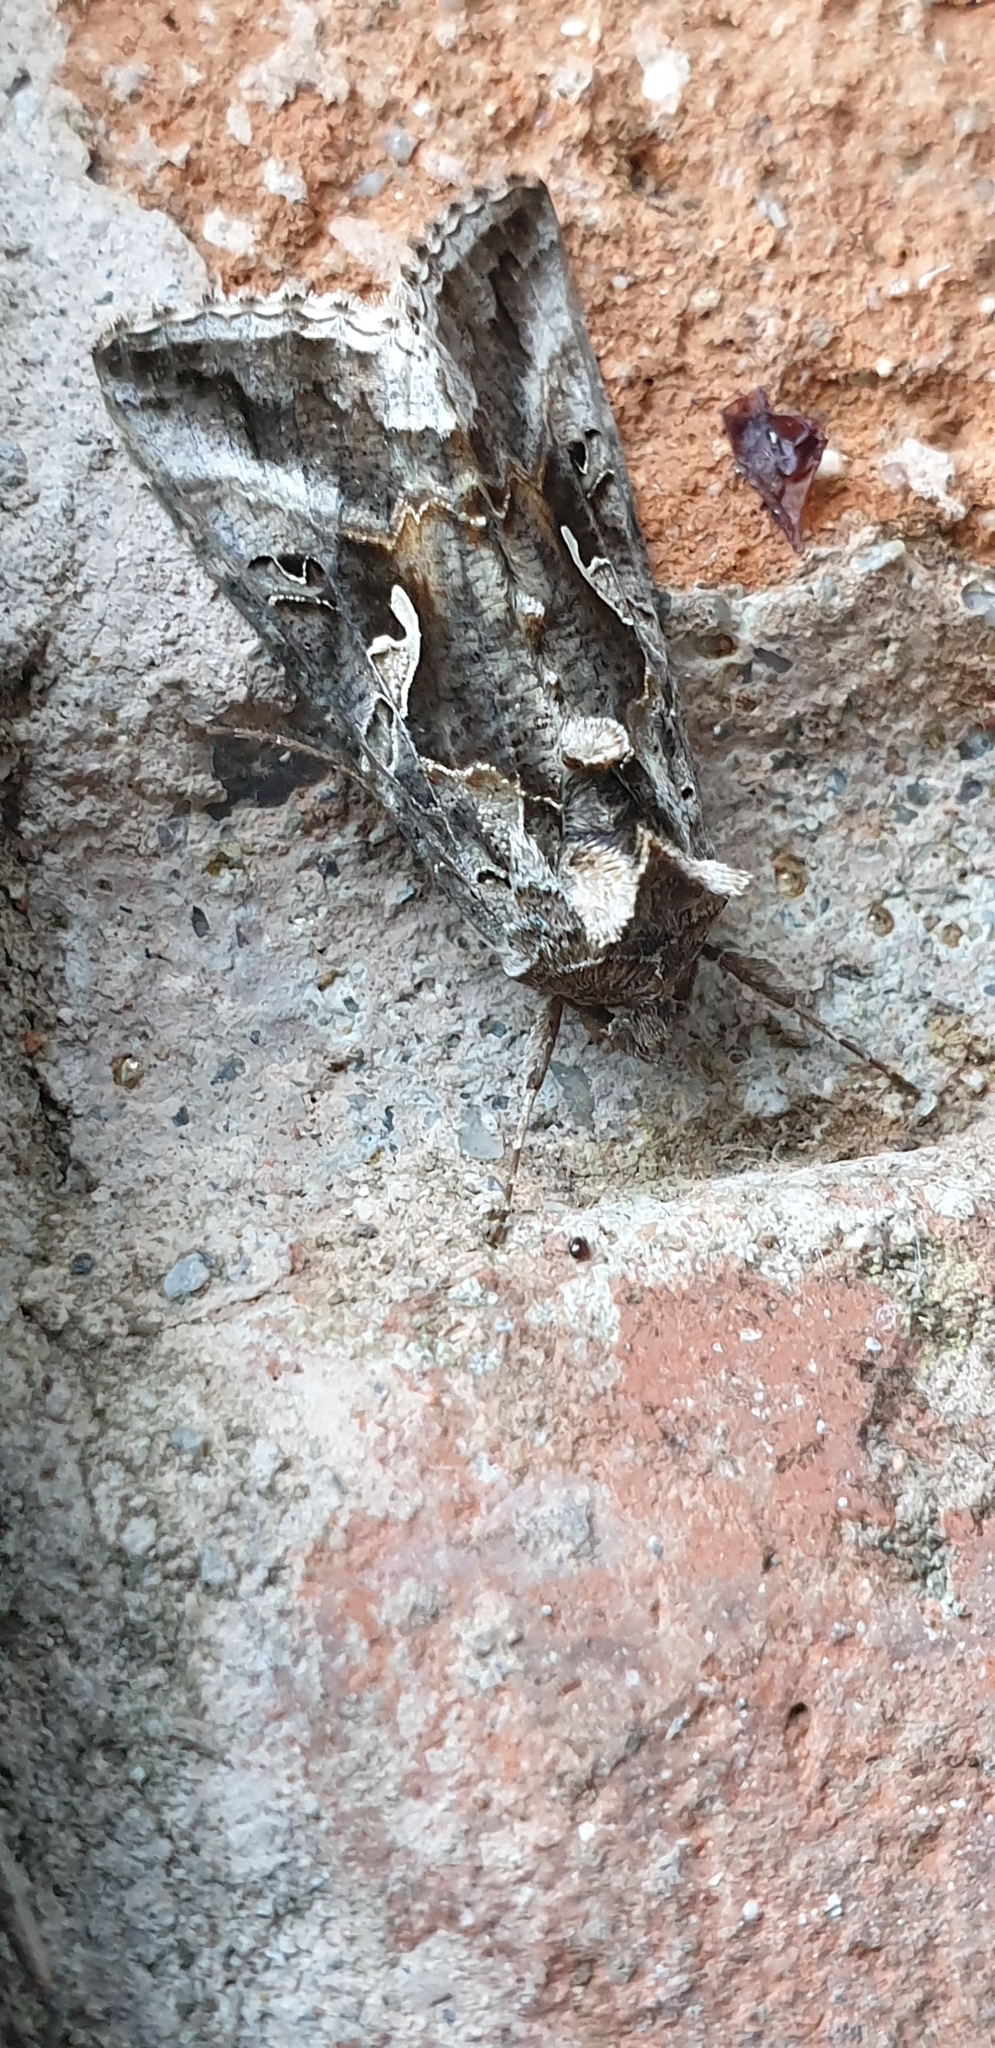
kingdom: Animalia
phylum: Arthropoda
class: Insecta
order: Lepidoptera
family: Noctuidae
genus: Autographa
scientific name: Autographa gamma
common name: Silver y
